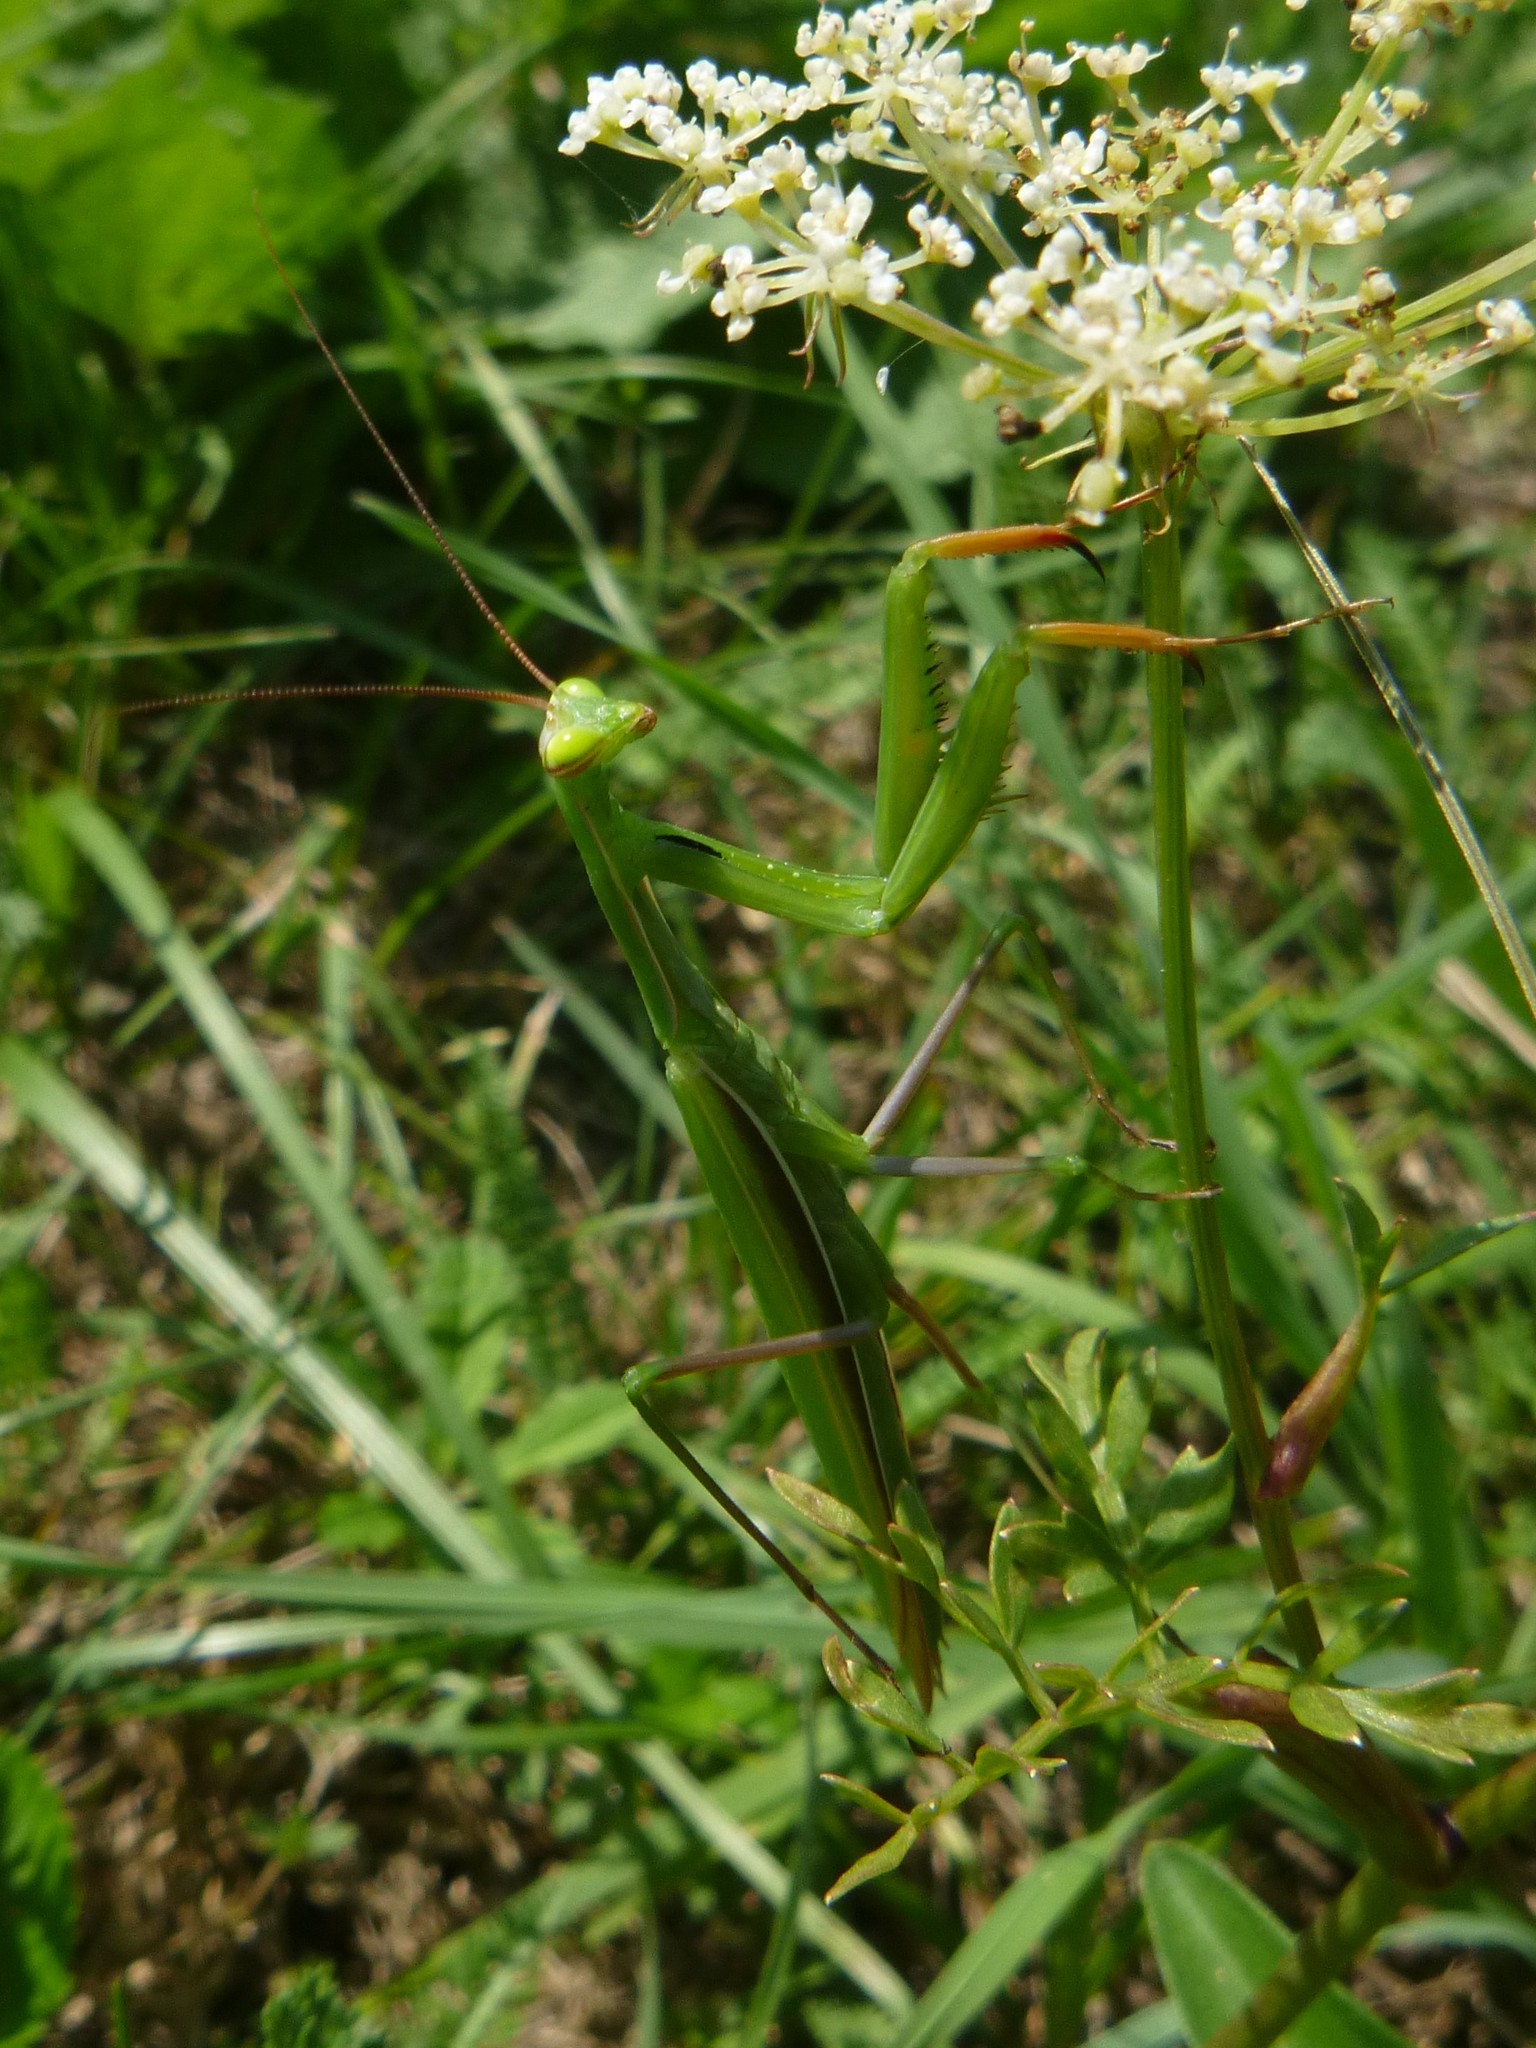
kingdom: Animalia
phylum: Arthropoda
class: Insecta
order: Mantodea
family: Mantidae
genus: Mantis
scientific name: Mantis religiosa
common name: Praying mantis
